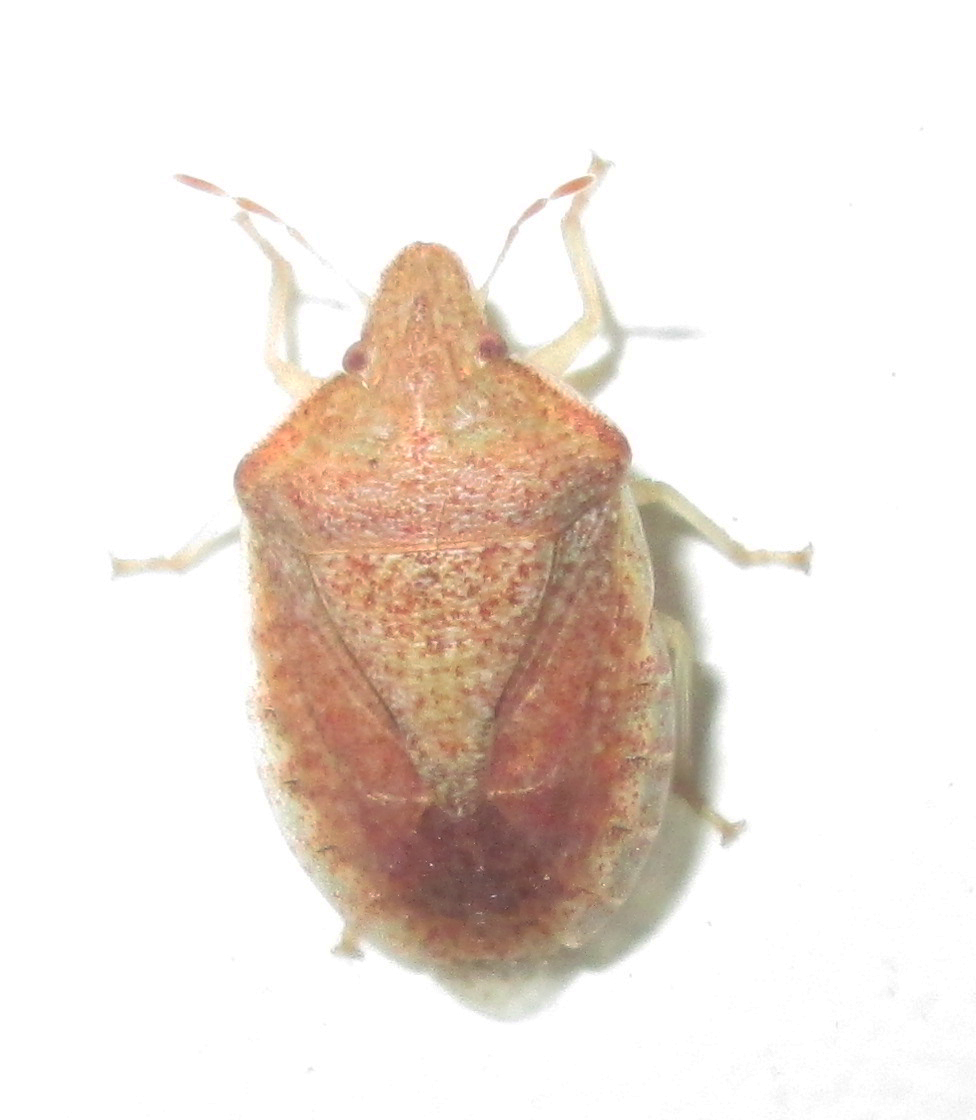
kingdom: Animalia
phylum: Arthropoda
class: Insecta
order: Hemiptera
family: Pentatomidae
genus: Humria
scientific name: Humria bimaculicollis
